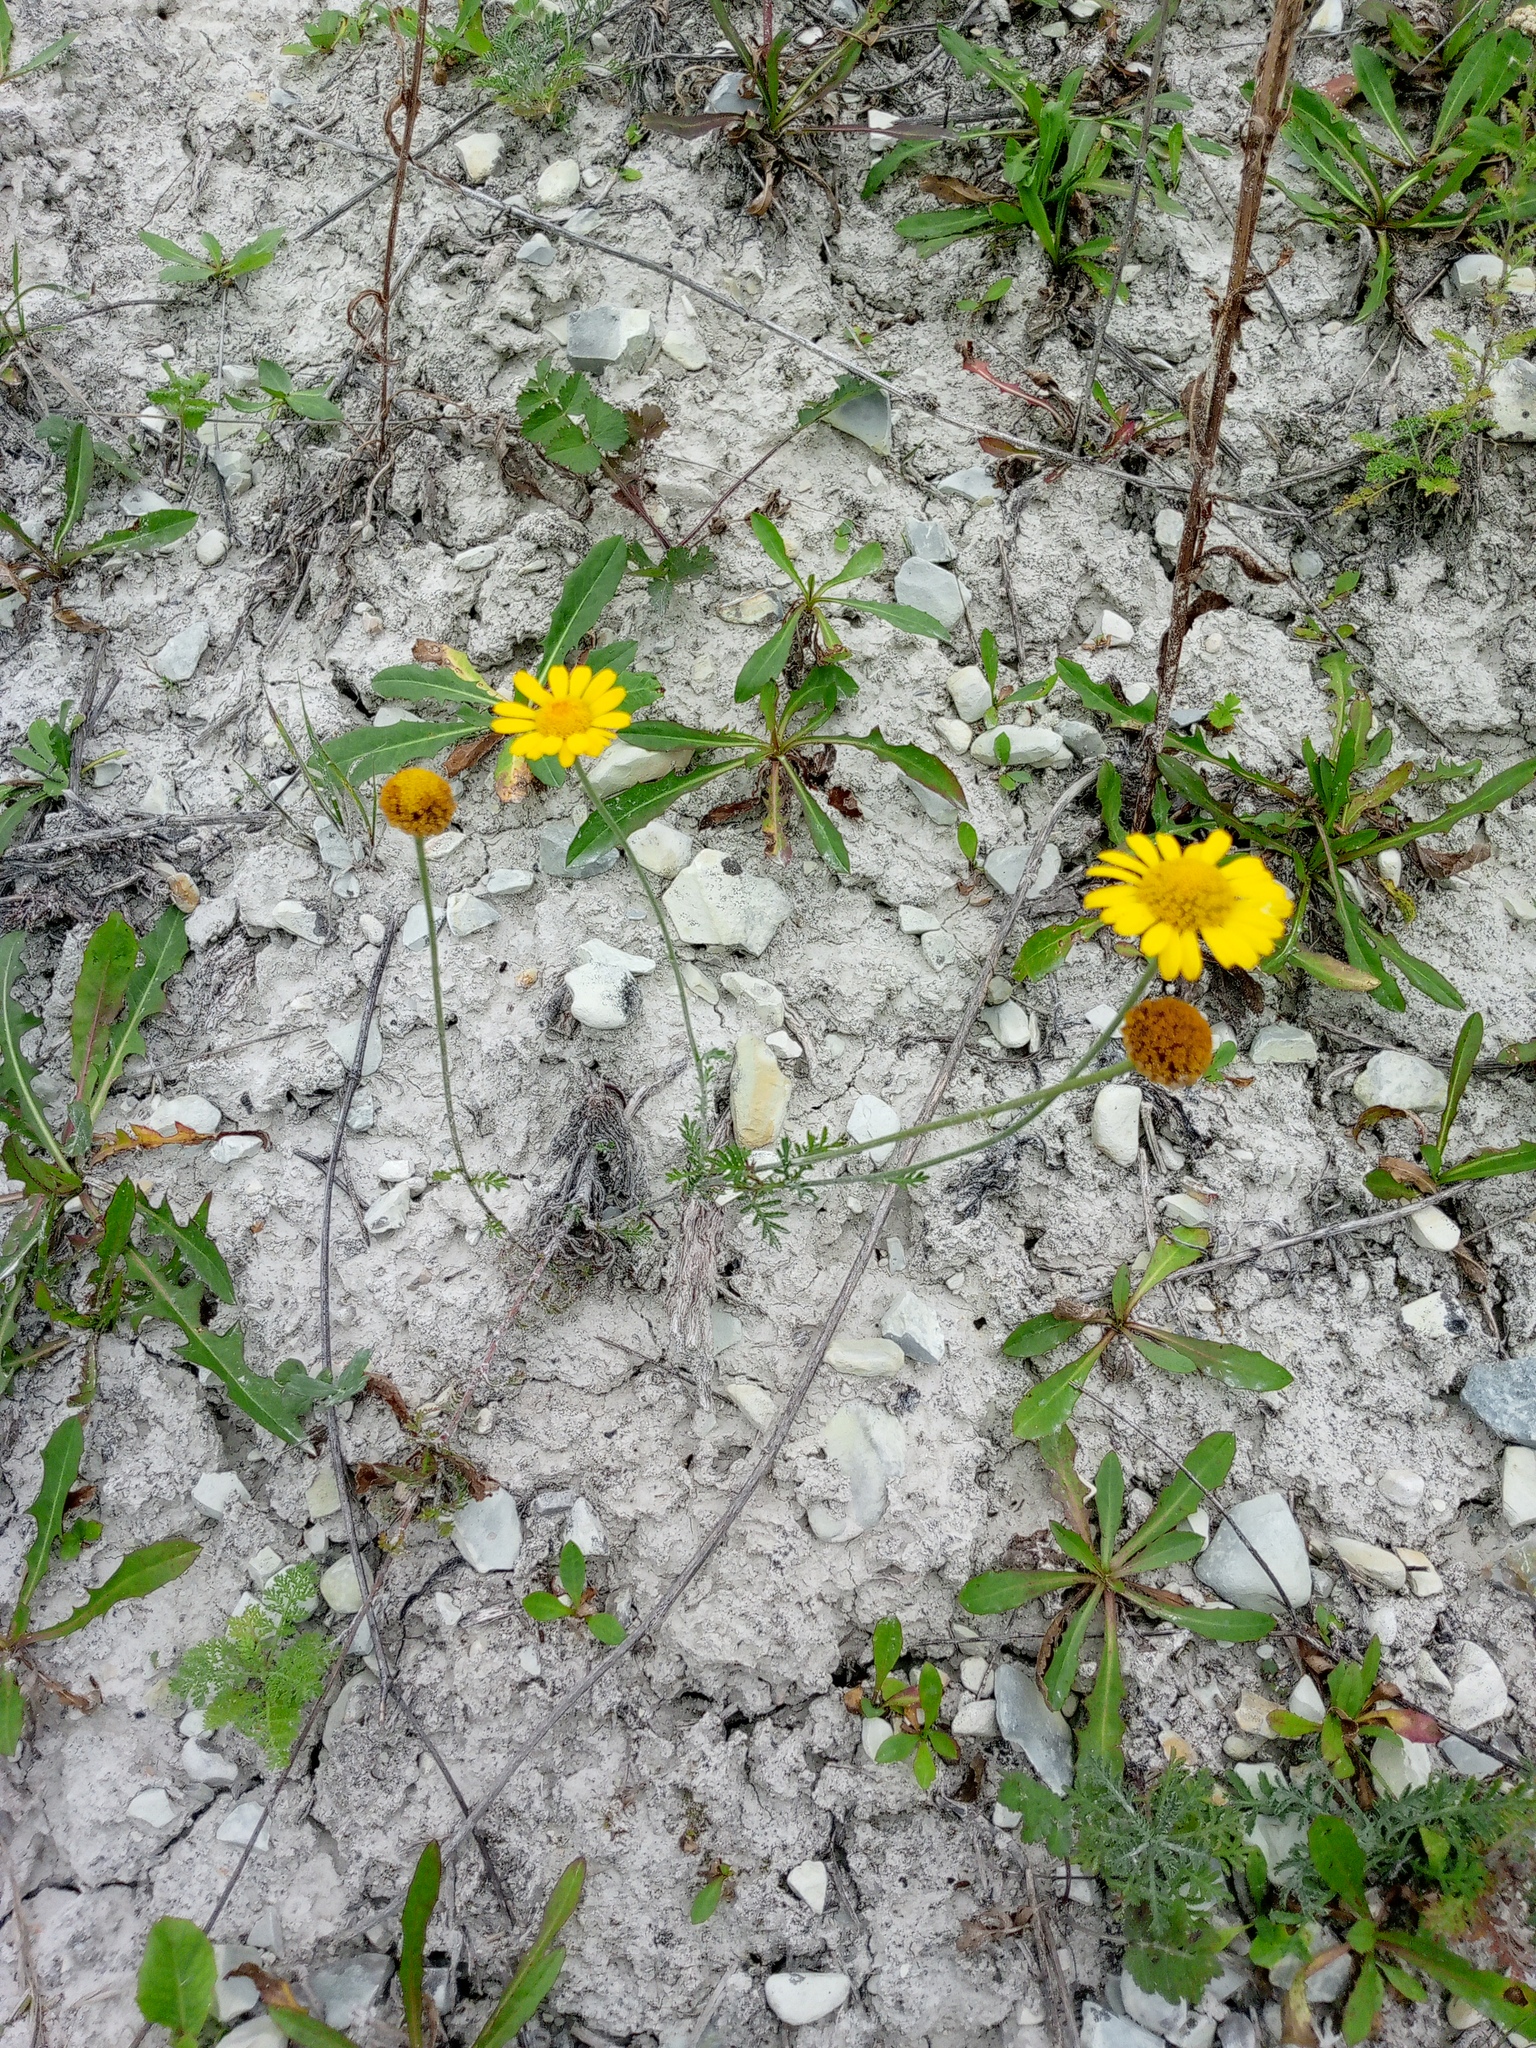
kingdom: Plantae
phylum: Tracheophyta
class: Magnoliopsida
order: Asterales
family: Asteraceae
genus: Cota
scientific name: Cota tinctoria
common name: Golden chamomile
